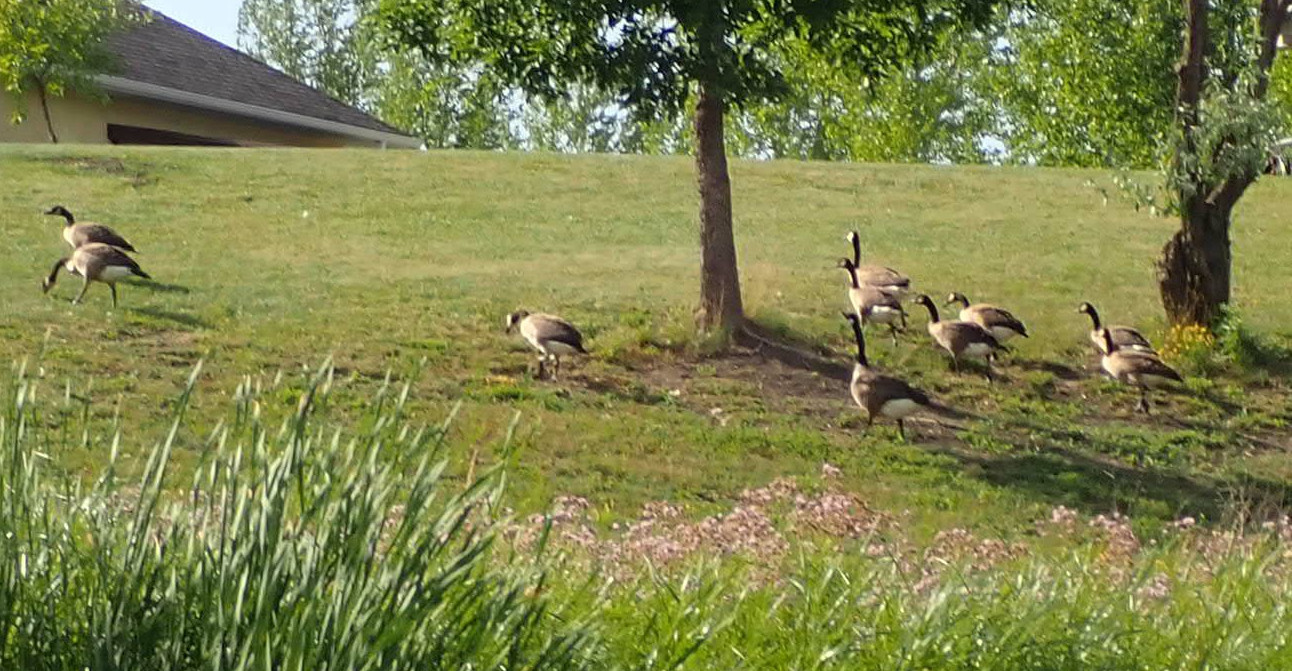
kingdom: Animalia
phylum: Chordata
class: Aves
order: Anseriformes
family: Anatidae
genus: Branta
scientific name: Branta canadensis
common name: Canada goose
